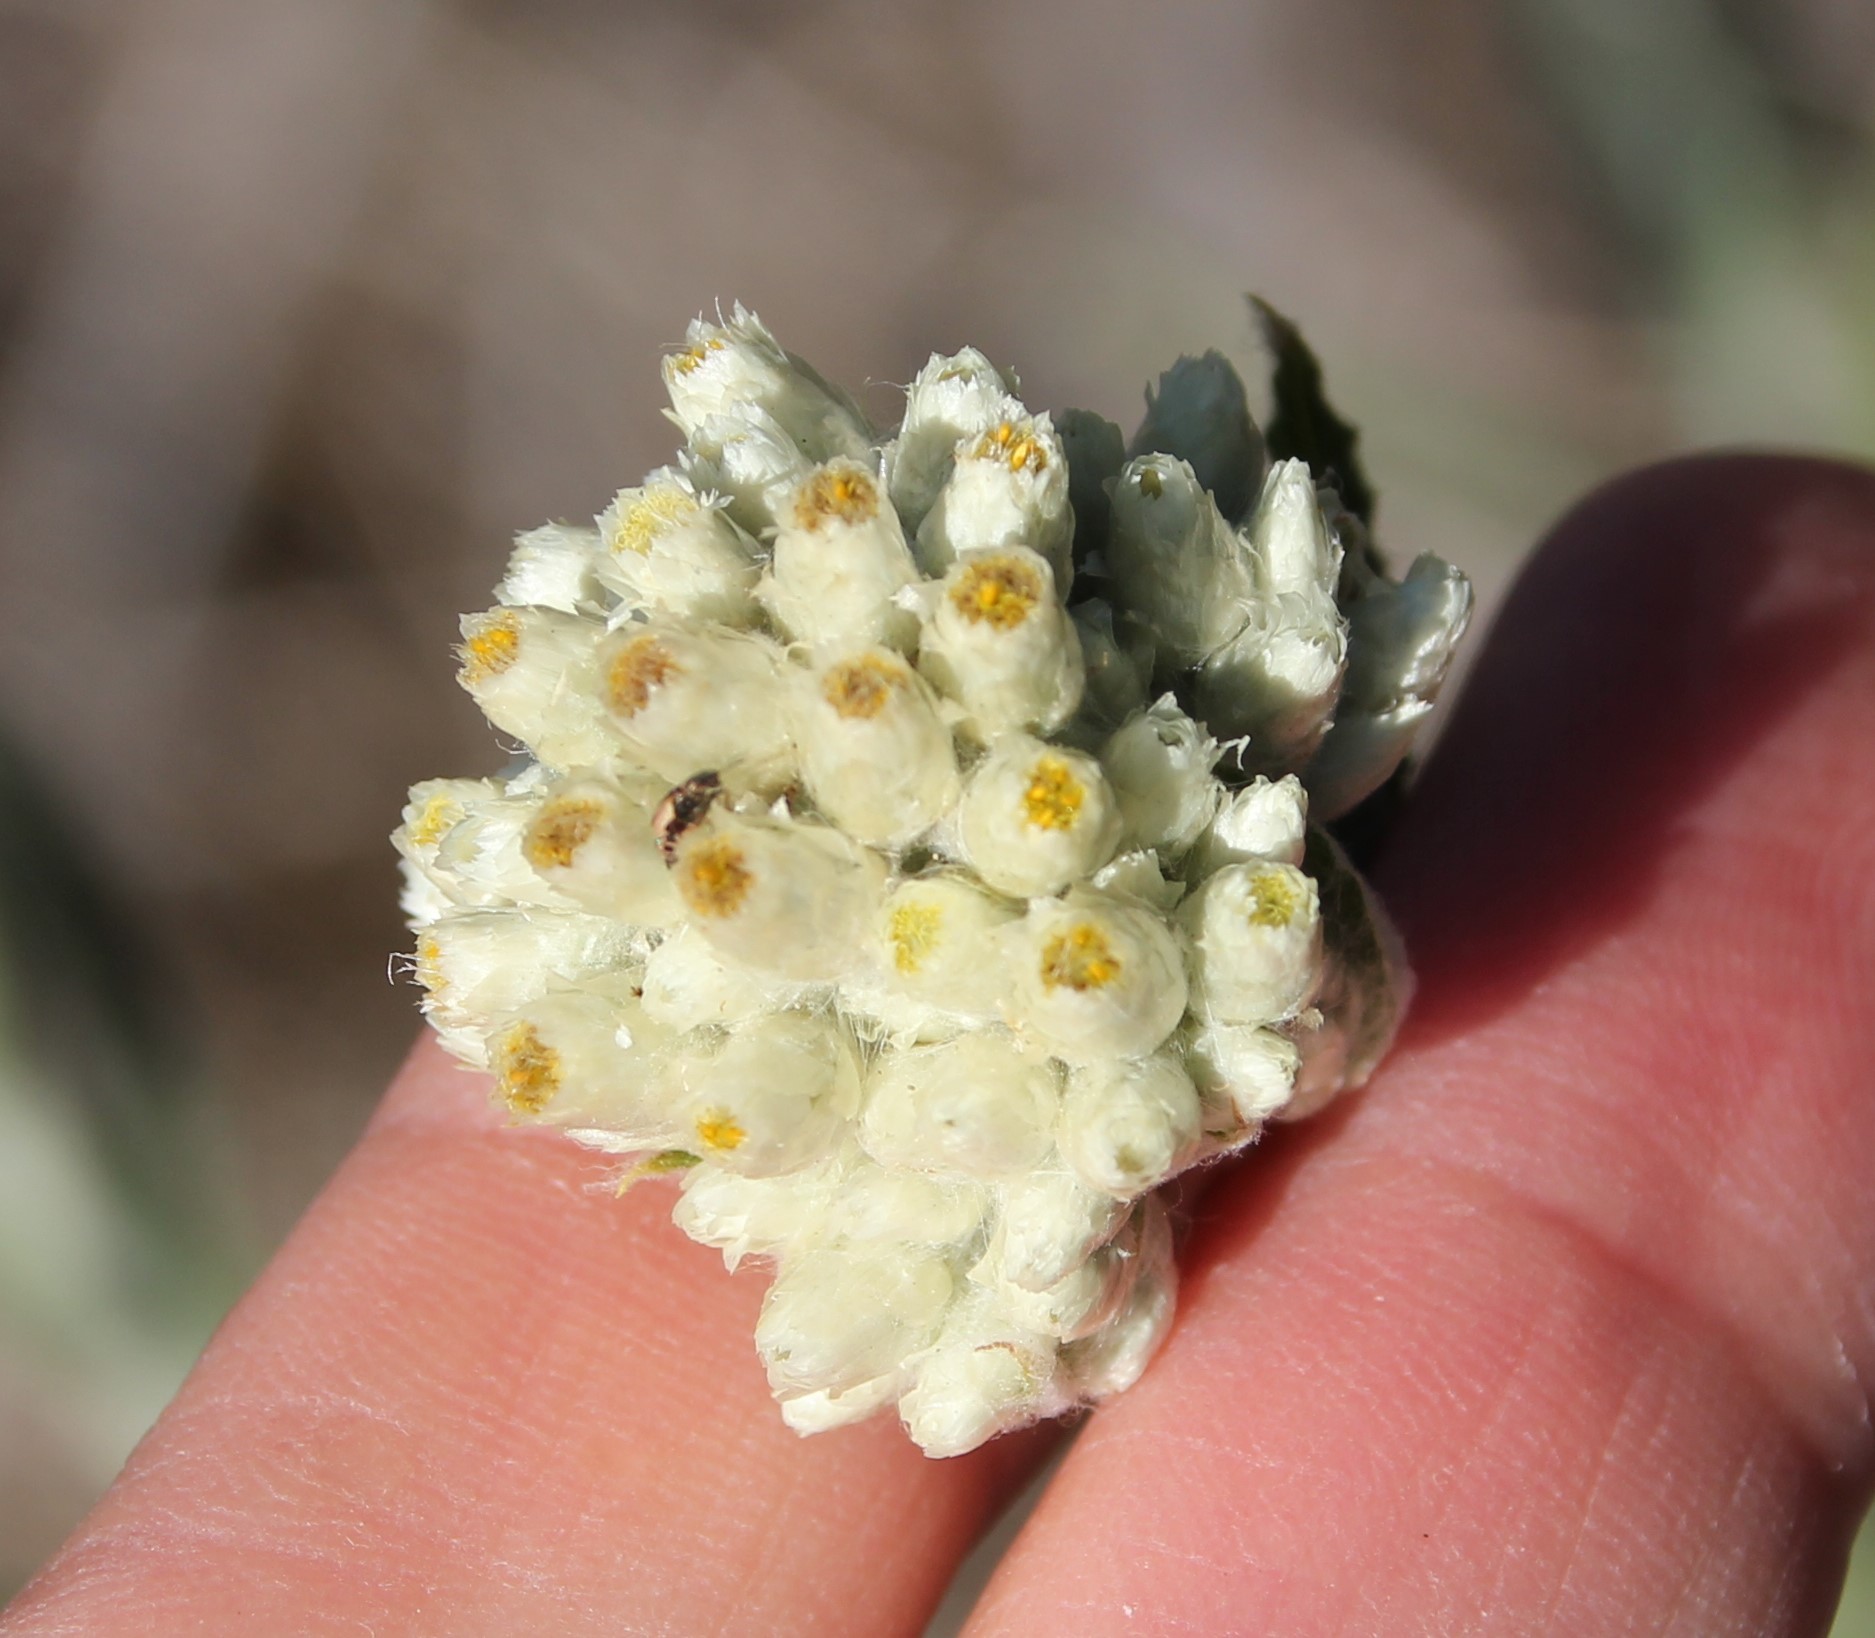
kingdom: Plantae
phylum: Tracheophyta
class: Magnoliopsida
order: Asterales
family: Asteraceae
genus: Pseudognaphalium
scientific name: Pseudognaphalium biolettii
